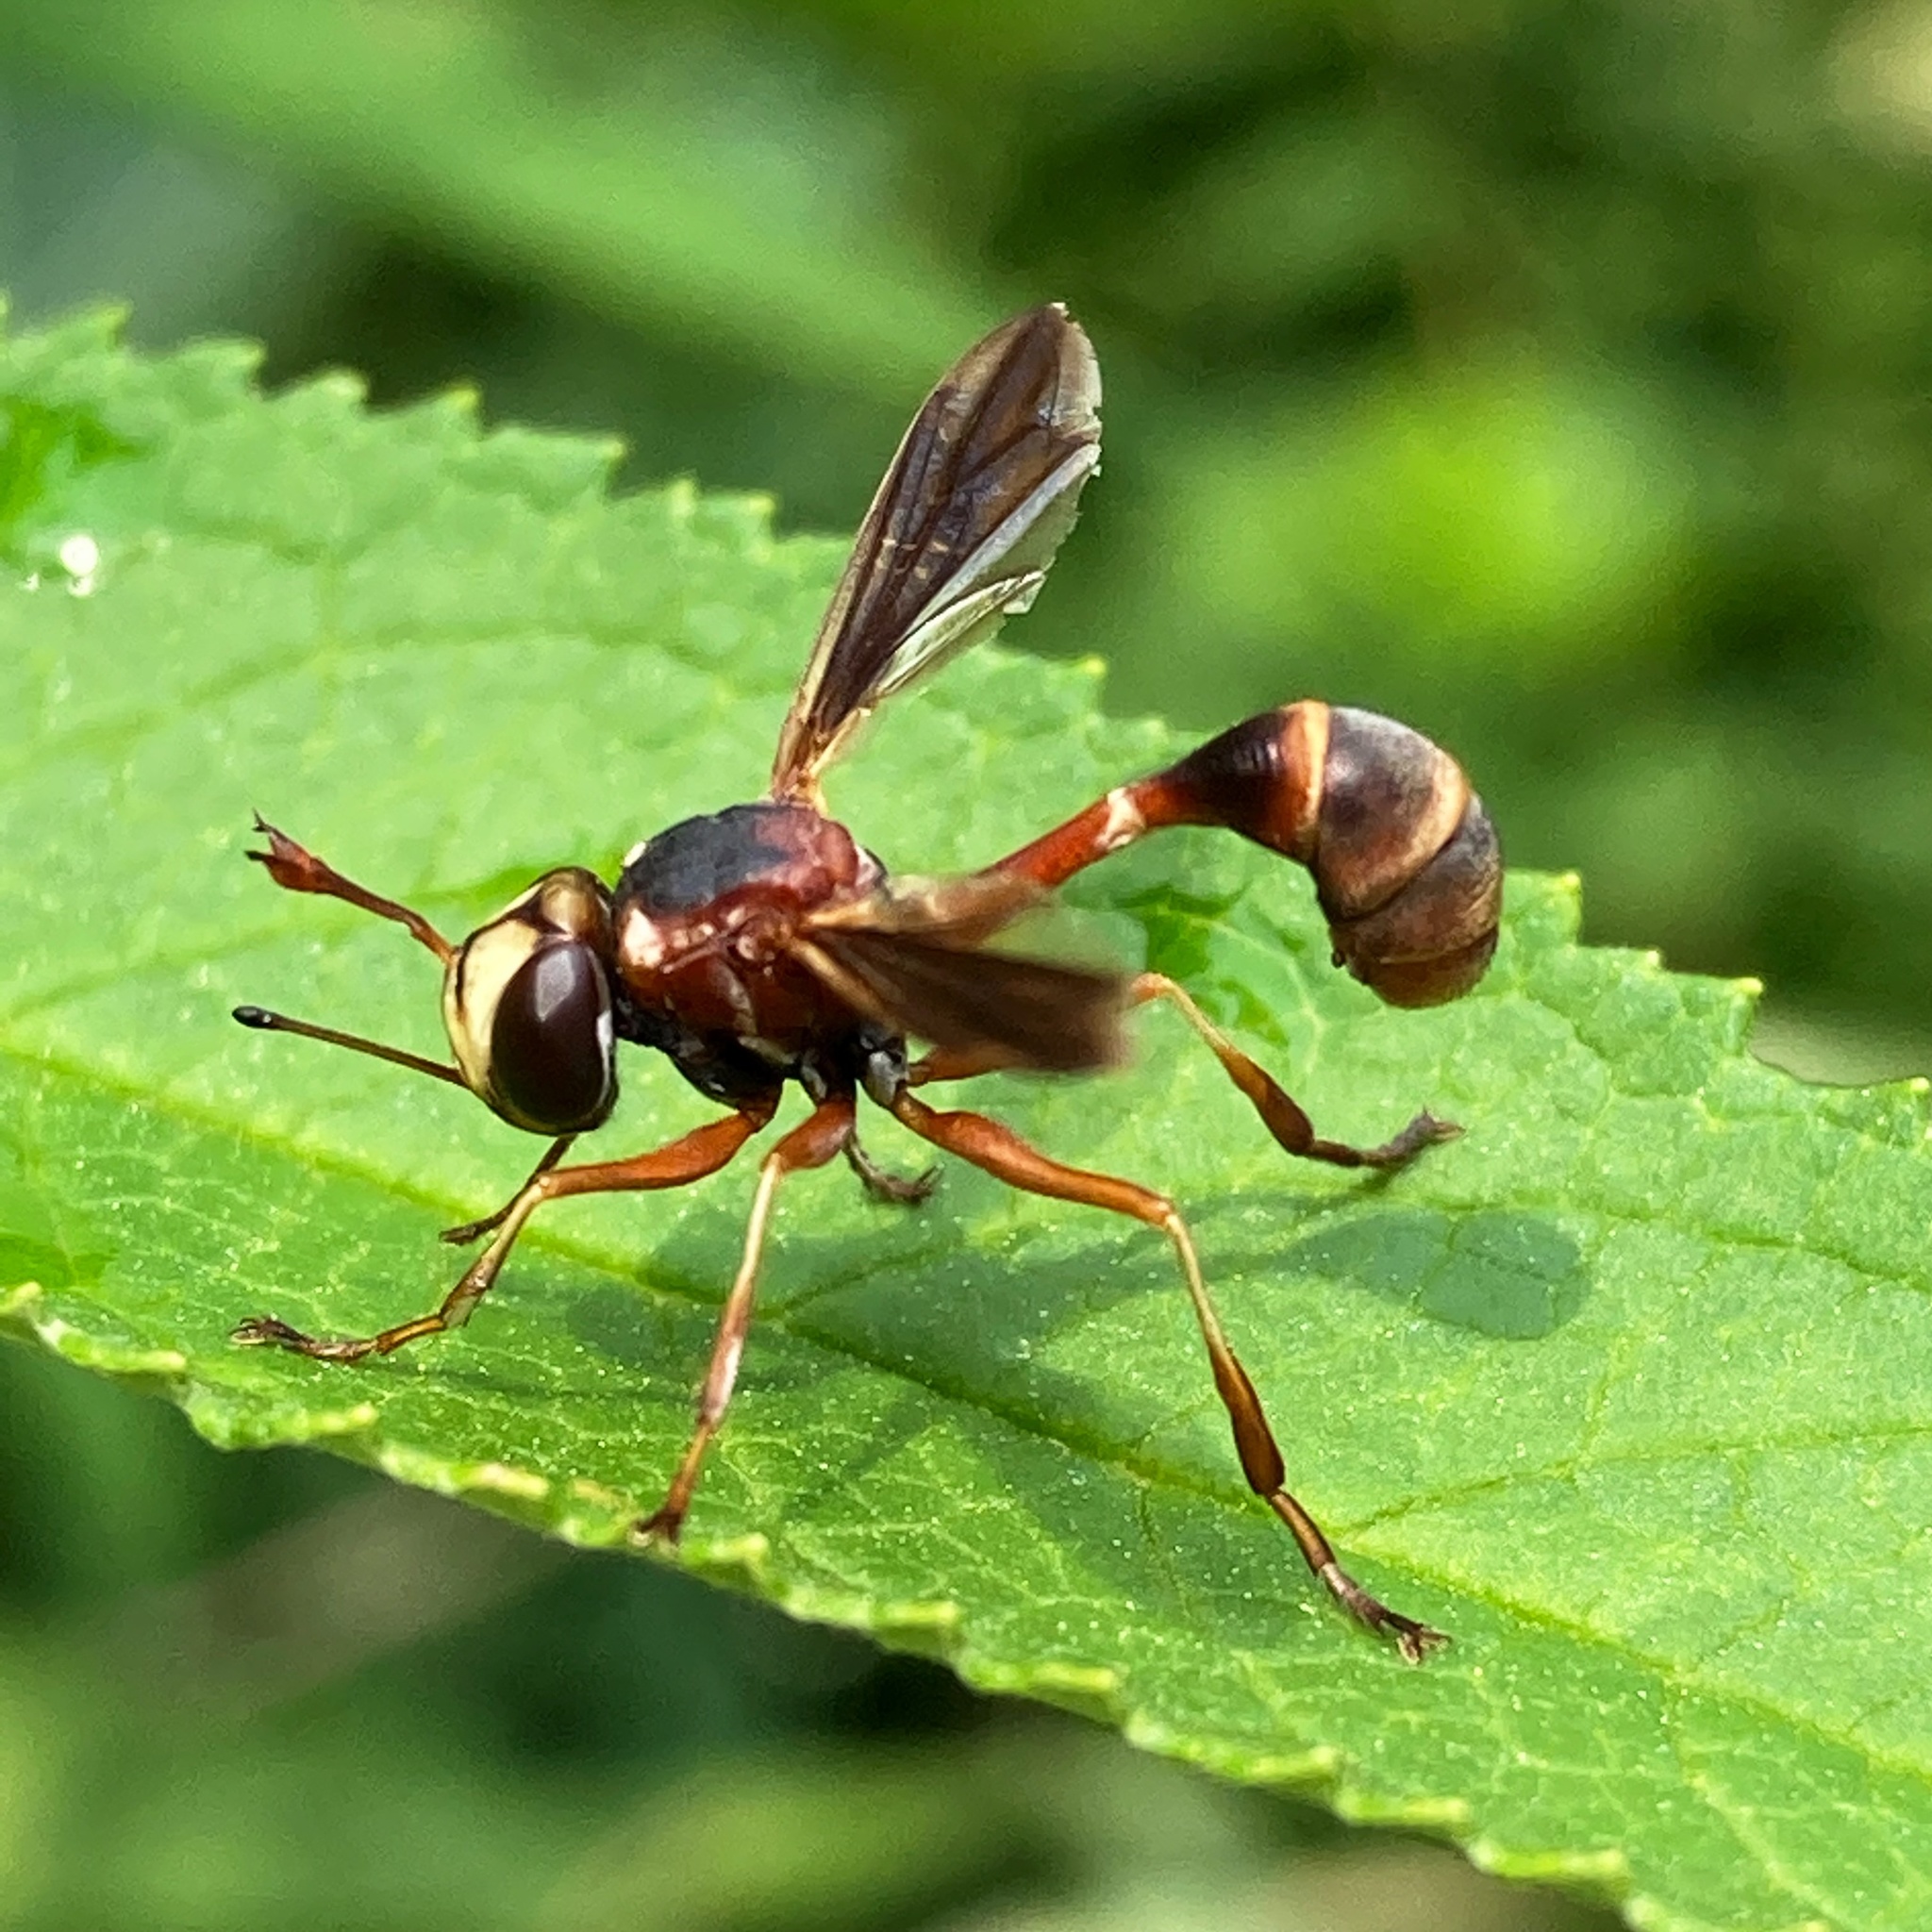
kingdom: Animalia
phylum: Arthropoda
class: Insecta
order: Diptera
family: Conopidae
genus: Physocephala
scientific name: Physocephala sagittaria
